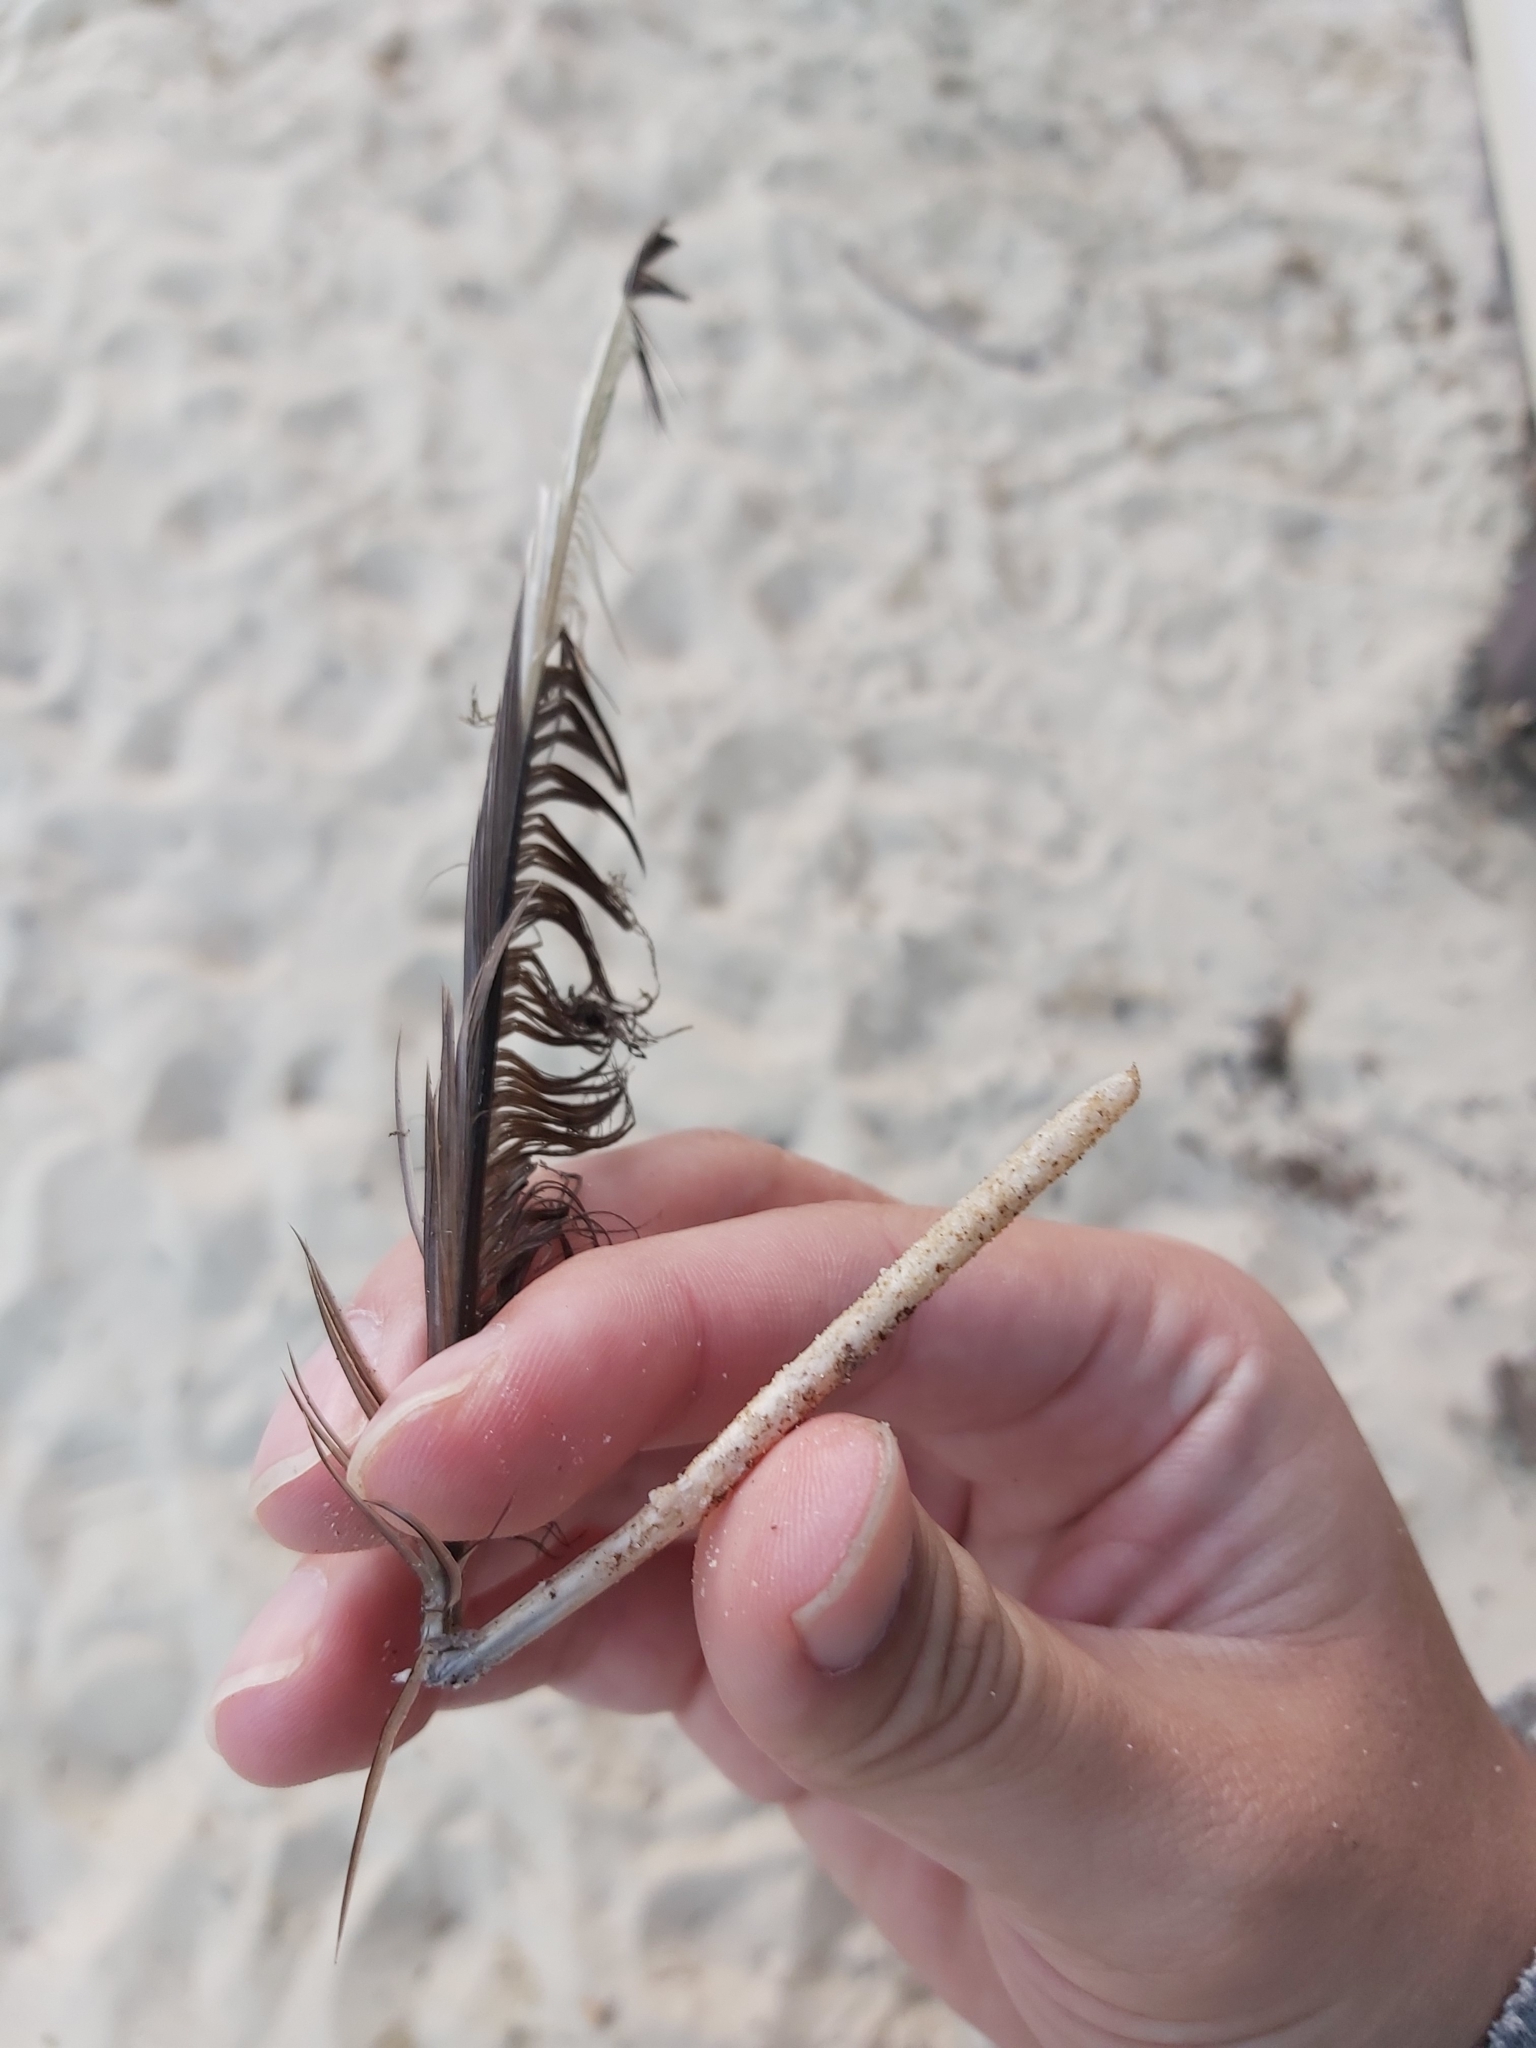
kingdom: Animalia
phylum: Chordata
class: Aves
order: Charadriiformes
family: Laridae
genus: Chroicocephalus
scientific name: Chroicocephalus novaehollandiae
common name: Silver gull
